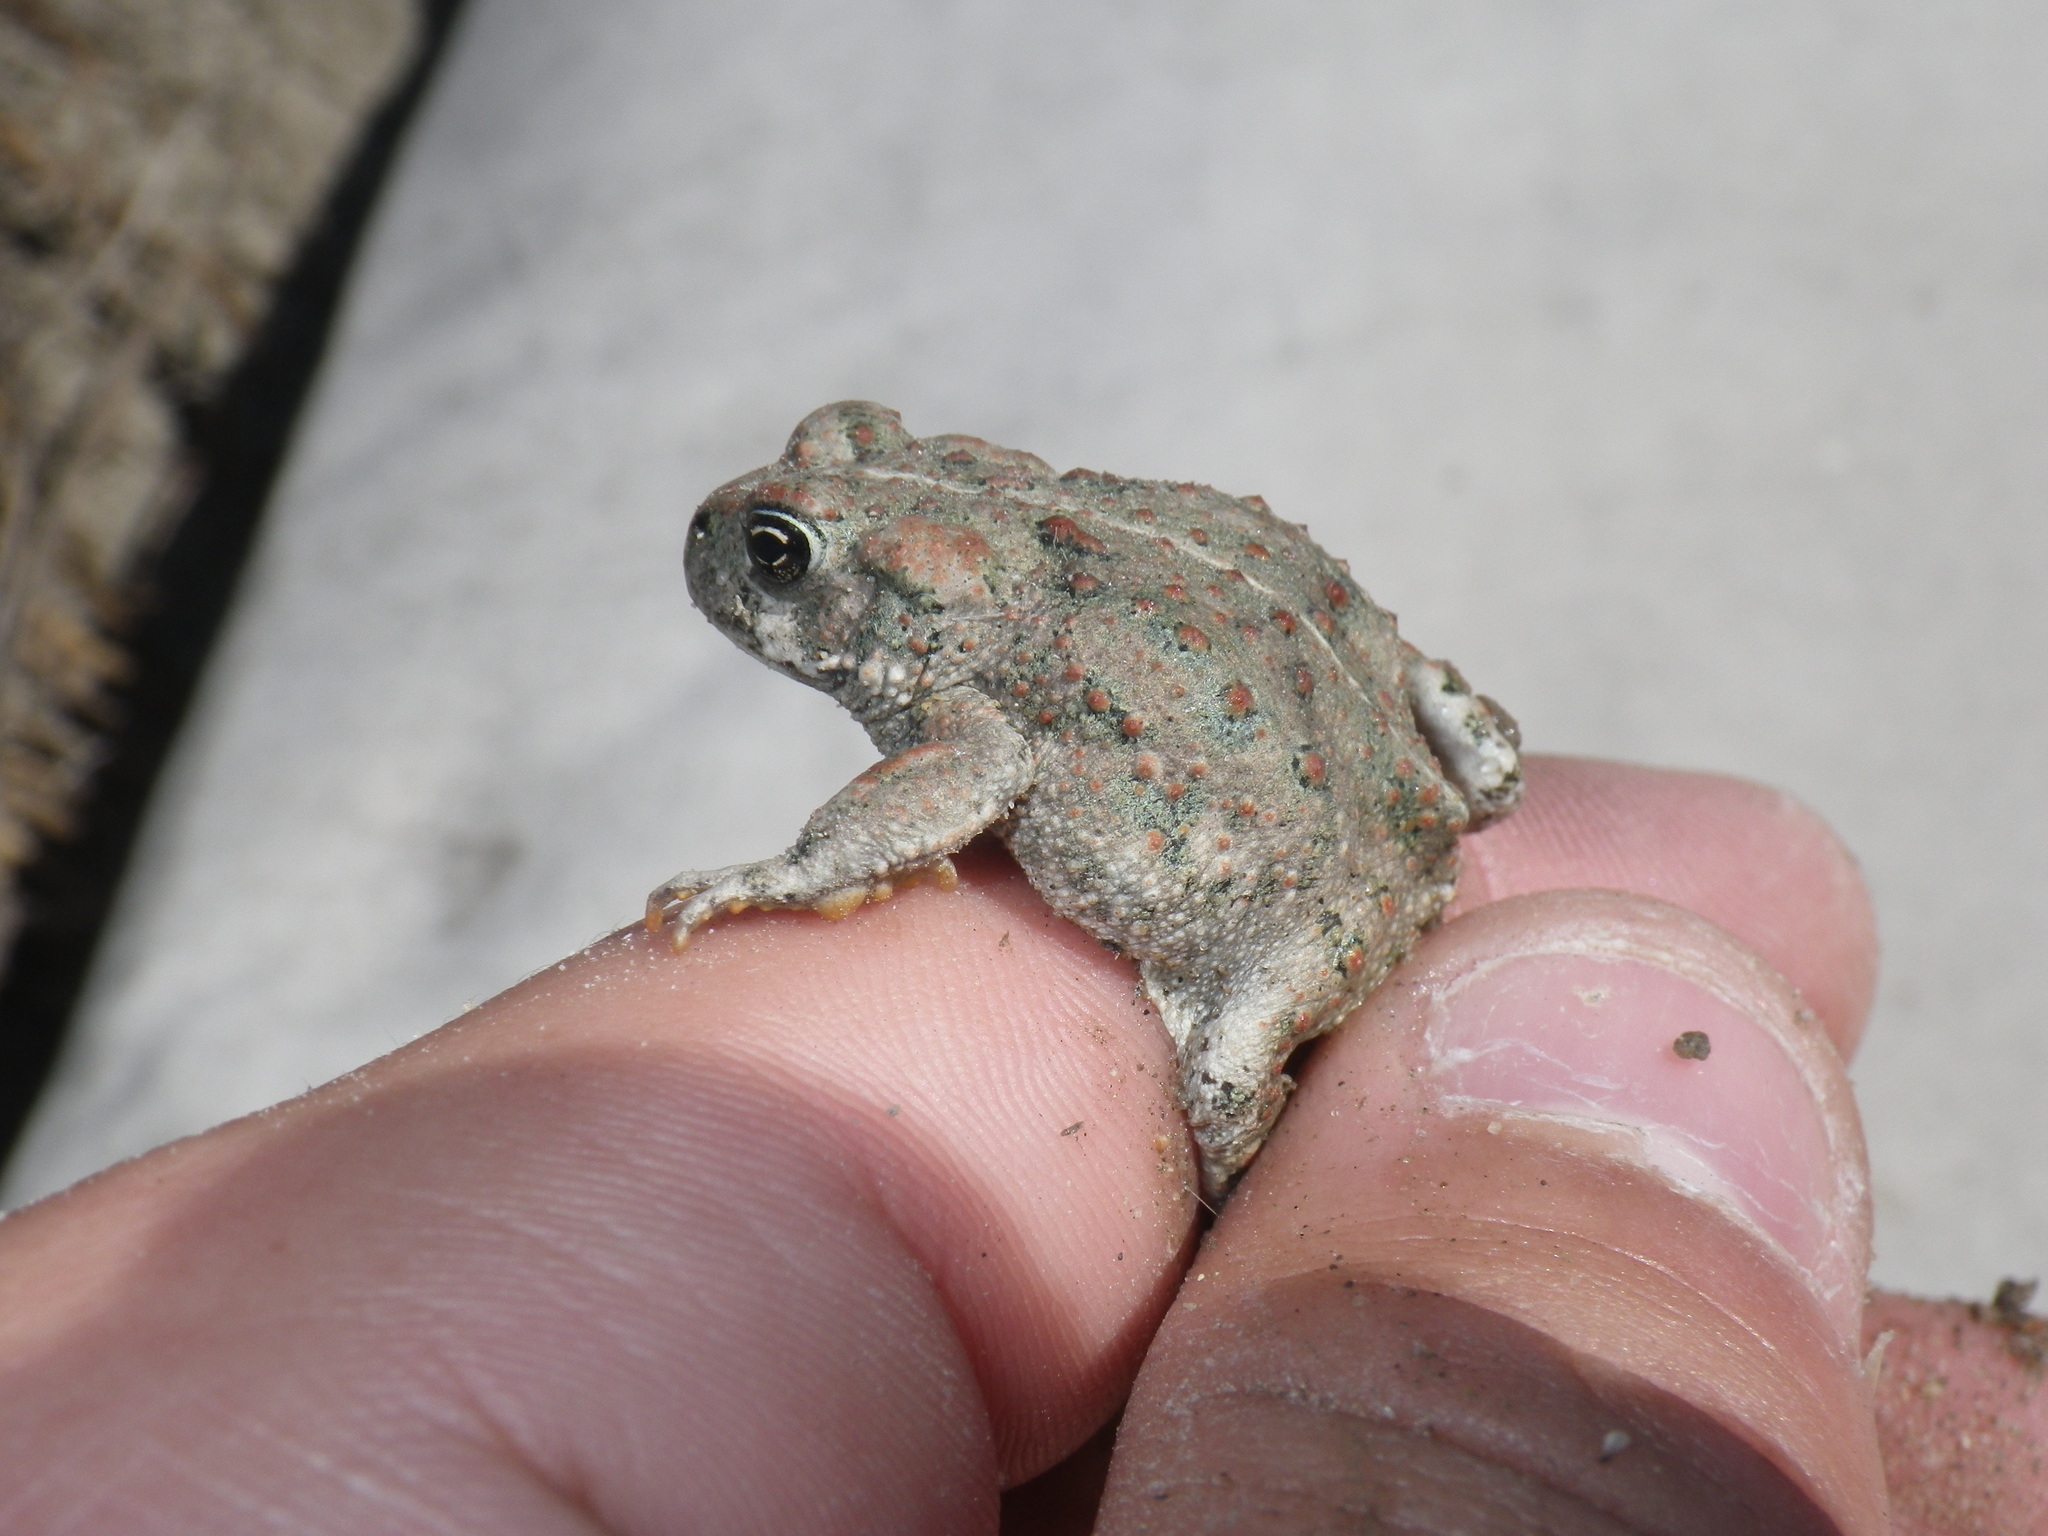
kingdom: Animalia
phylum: Chordata
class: Amphibia
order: Anura
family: Bufonidae
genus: Anaxyrus
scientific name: Anaxyrus boreas
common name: Western toad
